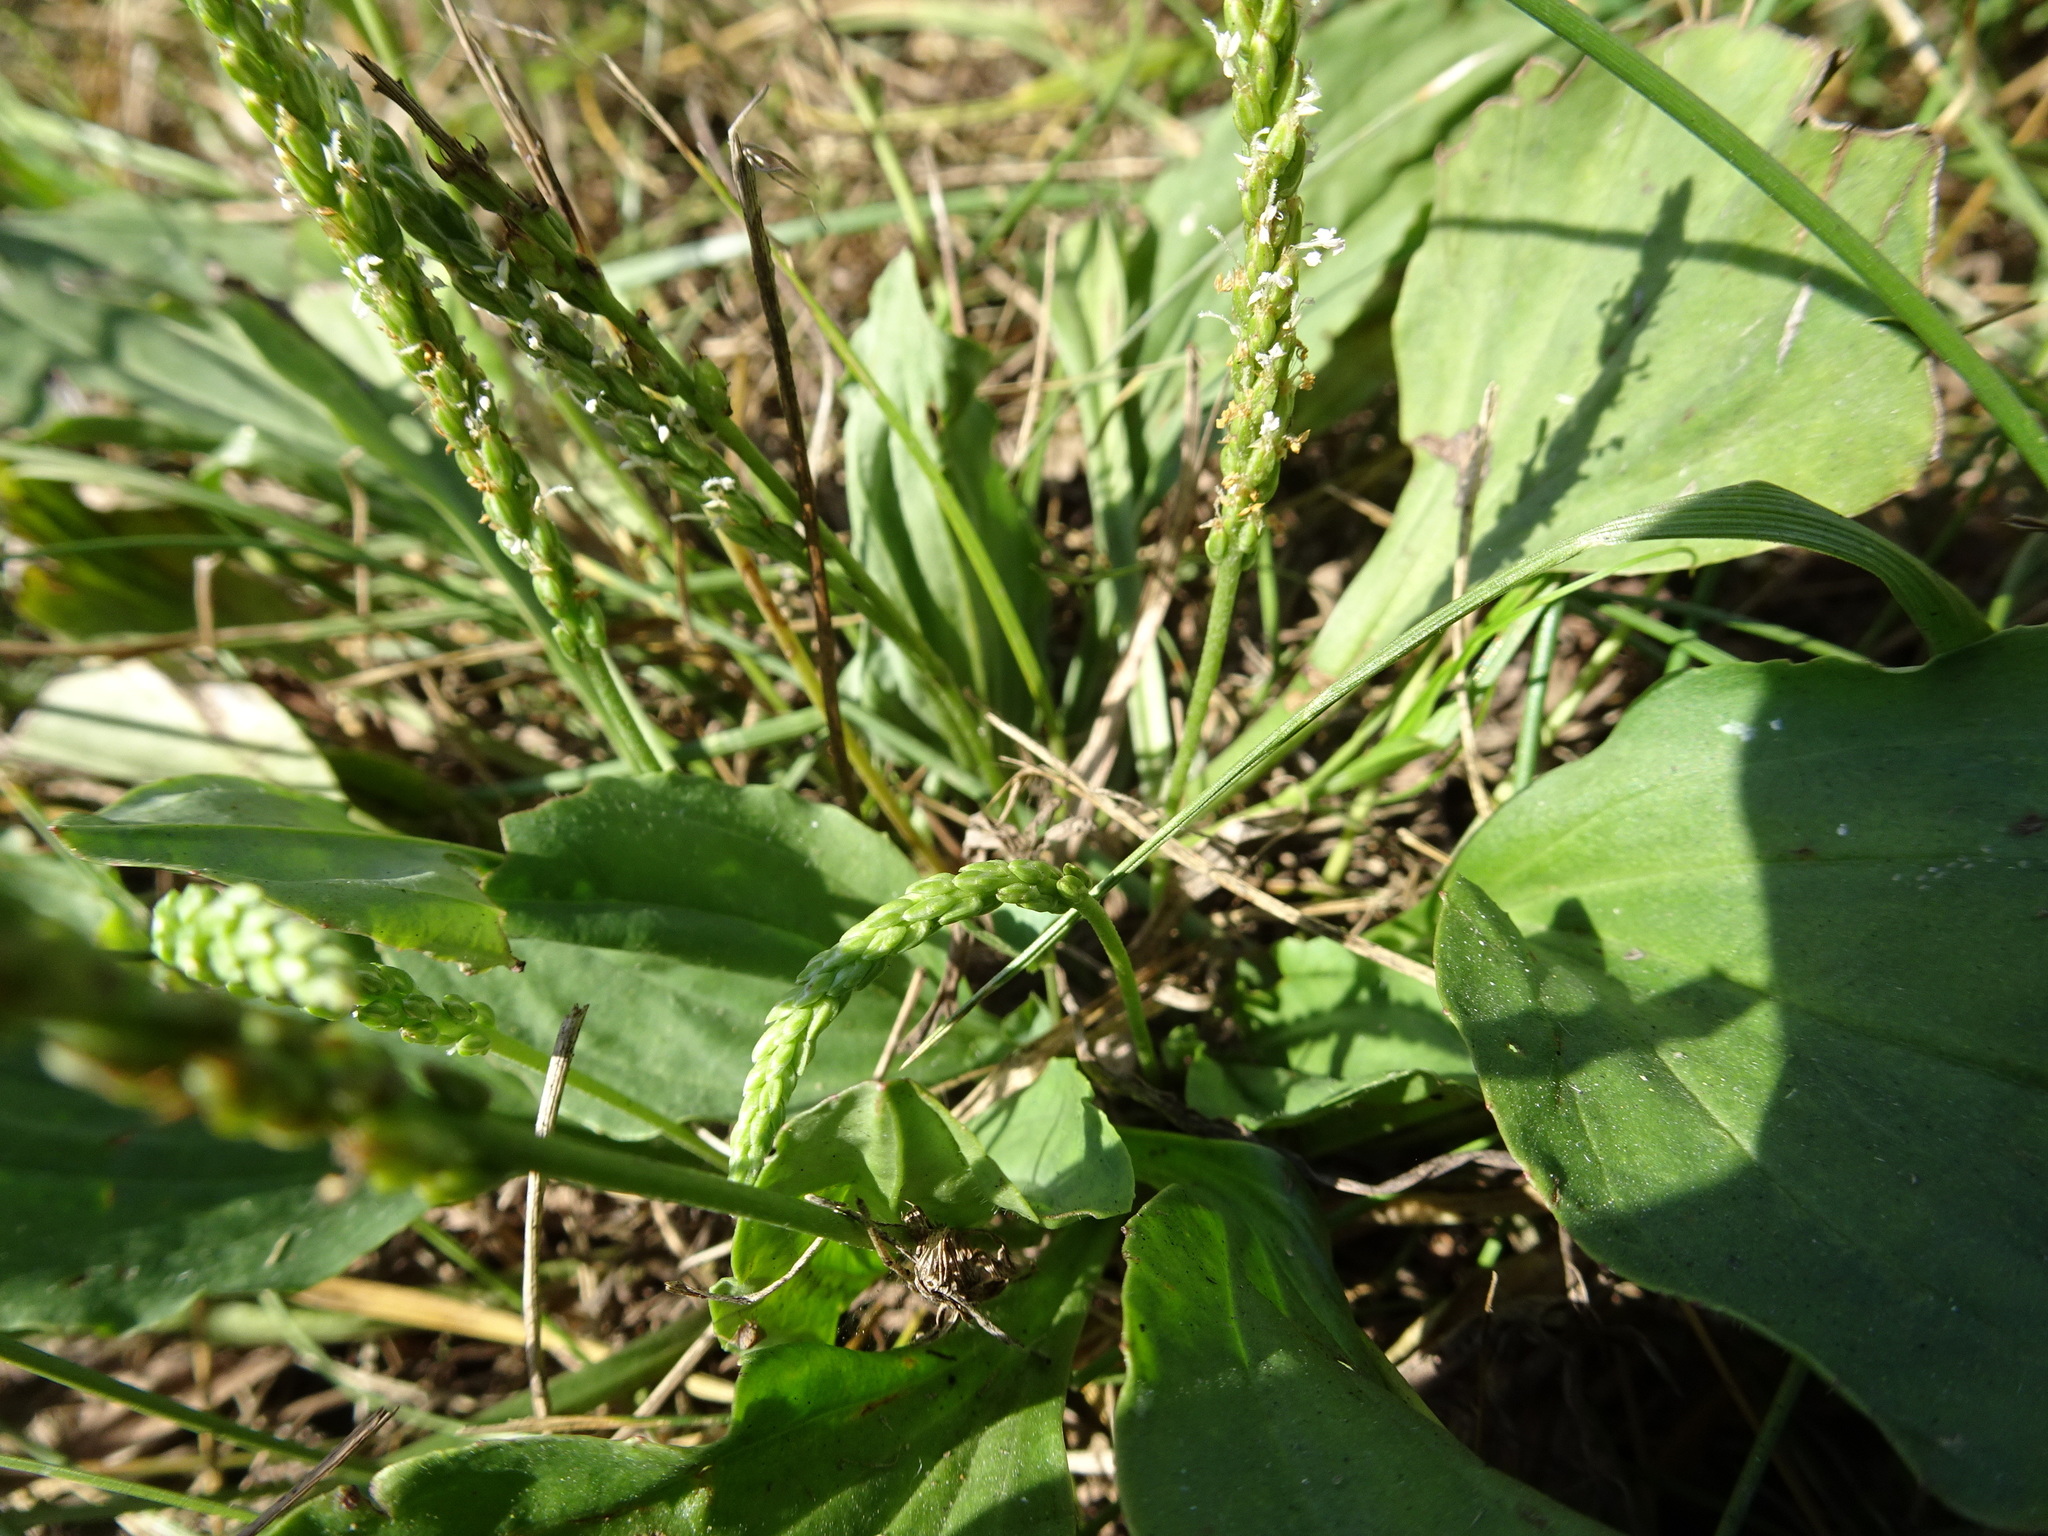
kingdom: Plantae
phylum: Tracheophyta
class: Magnoliopsida
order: Lamiales
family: Plantaginaceae
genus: Plantago
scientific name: Plantago rugelii
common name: American plantain
